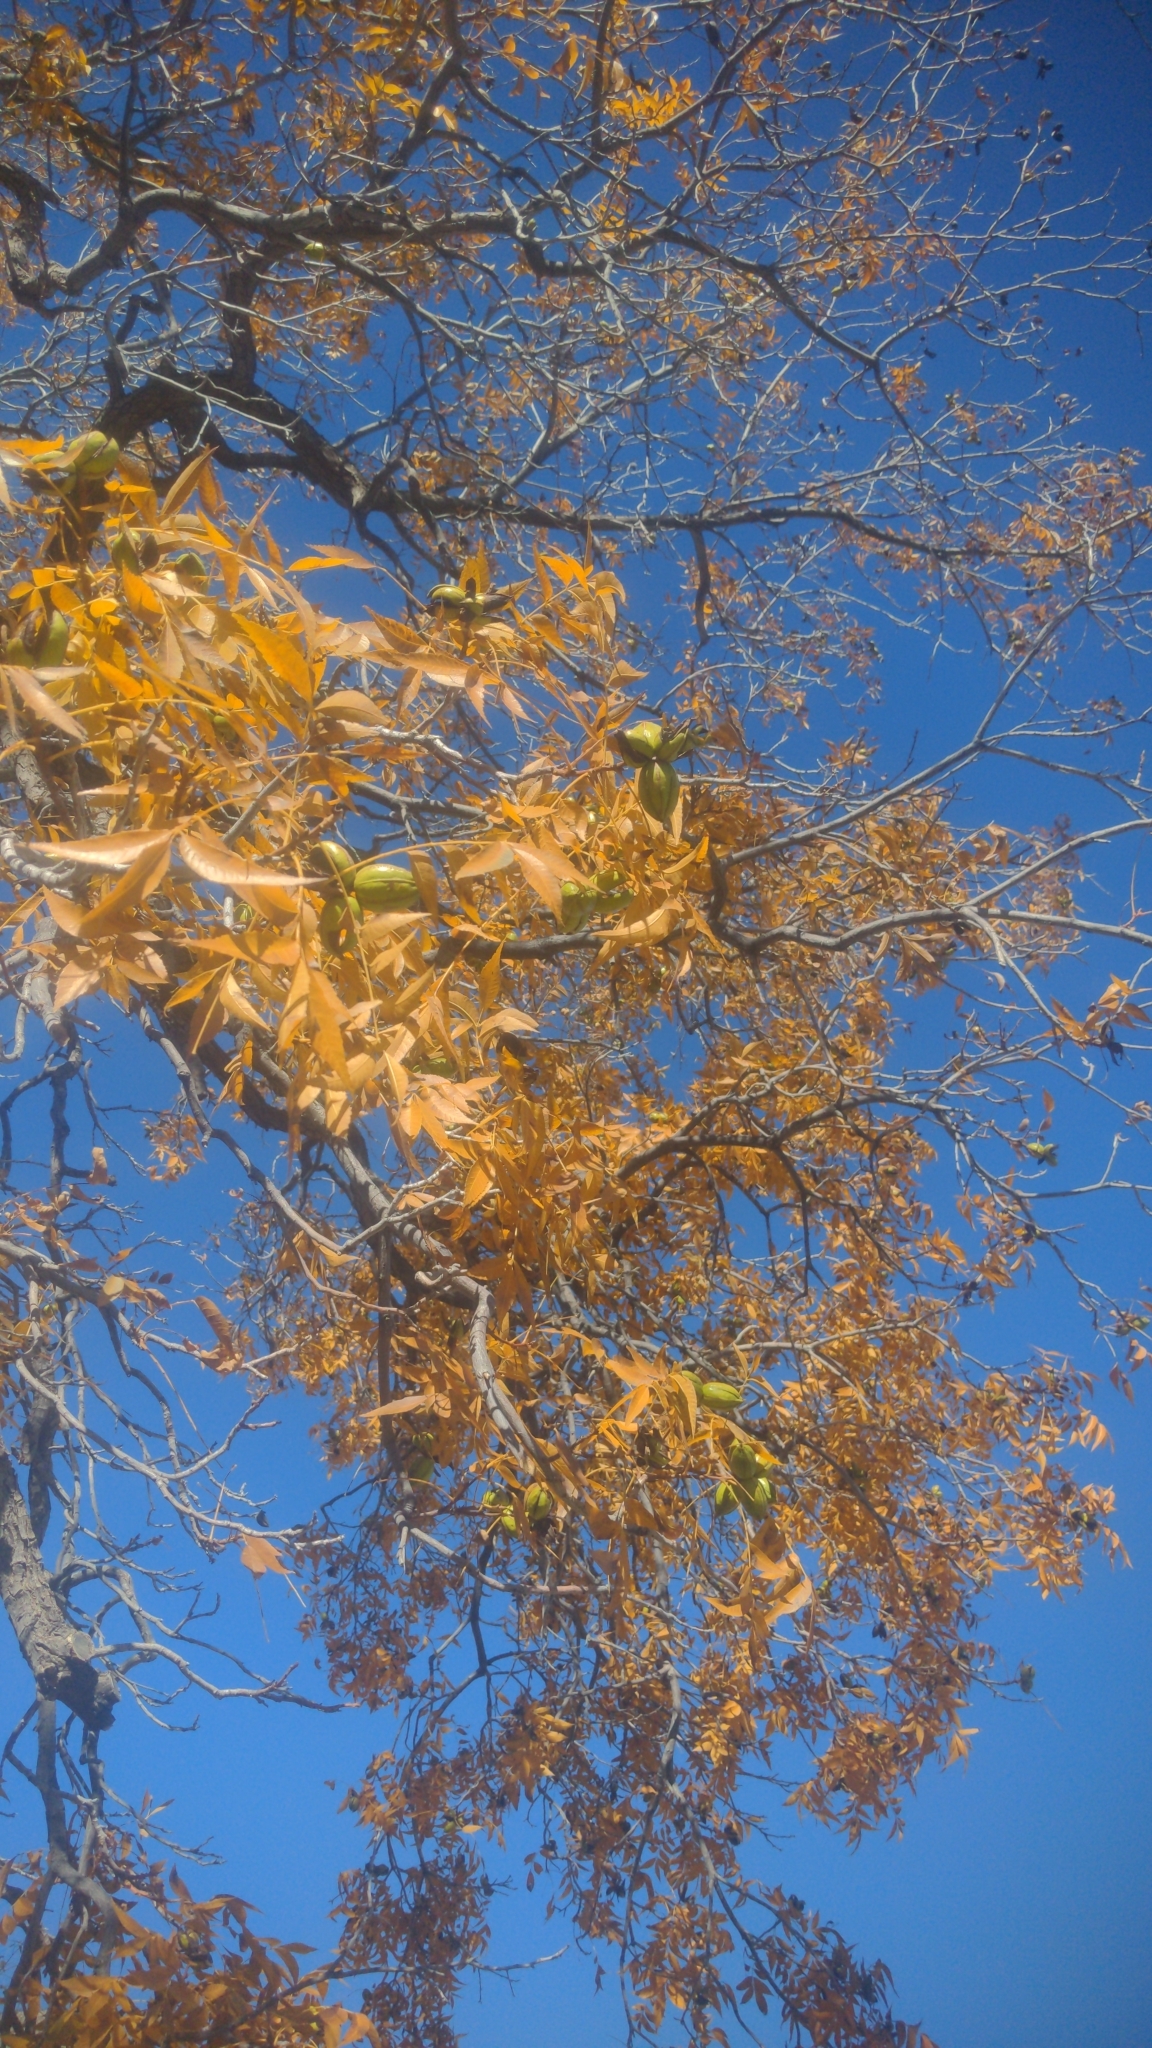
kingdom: Plantae
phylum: Tracheophyta
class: Magnoliopsida
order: Fagales
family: Juglandaceae
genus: Carya
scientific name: Carya illinoinensis
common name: Pecan
